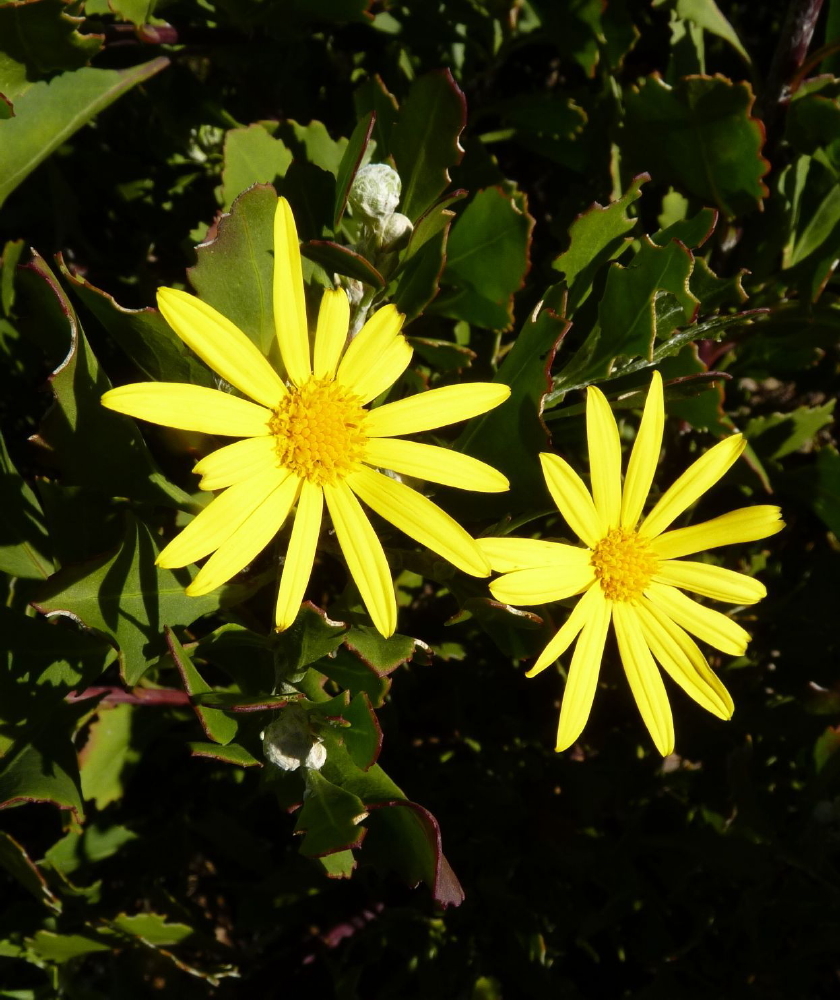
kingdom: Plantae
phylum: Tracheophyta
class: Magnoliopsida
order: Asterales
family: Asteraceae
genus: Osteospermum
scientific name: Osteospermum moniliferum
